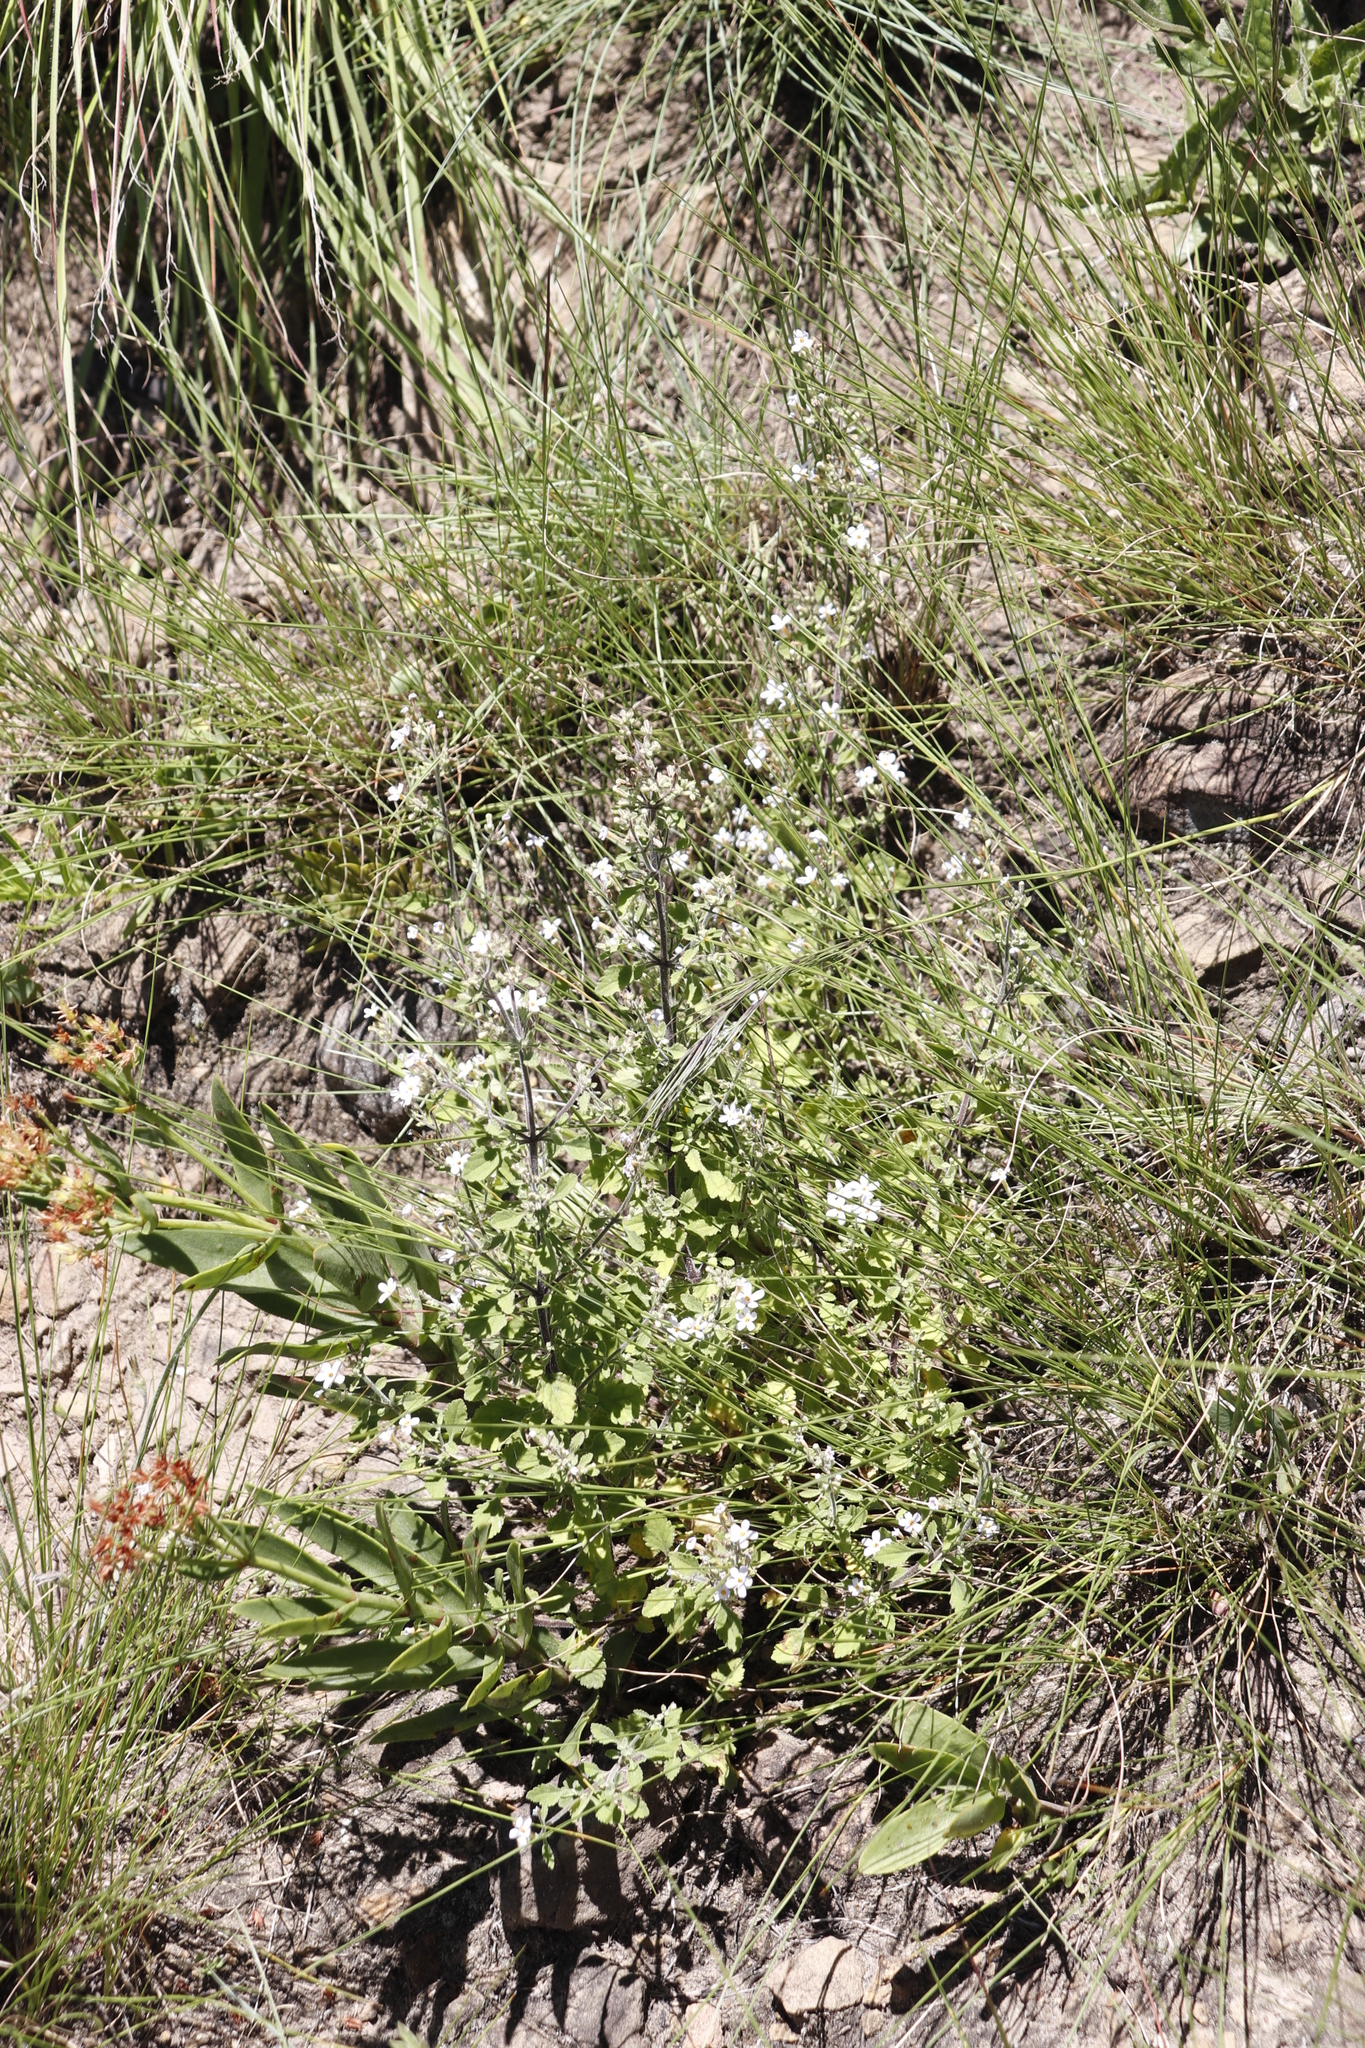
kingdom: Plantae
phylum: Tracheophyta
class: Magnoliopsida
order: Lamiales
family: Scrophulariaceae
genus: Jamesbrittenia
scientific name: Jamesbrittenia kraussiana
